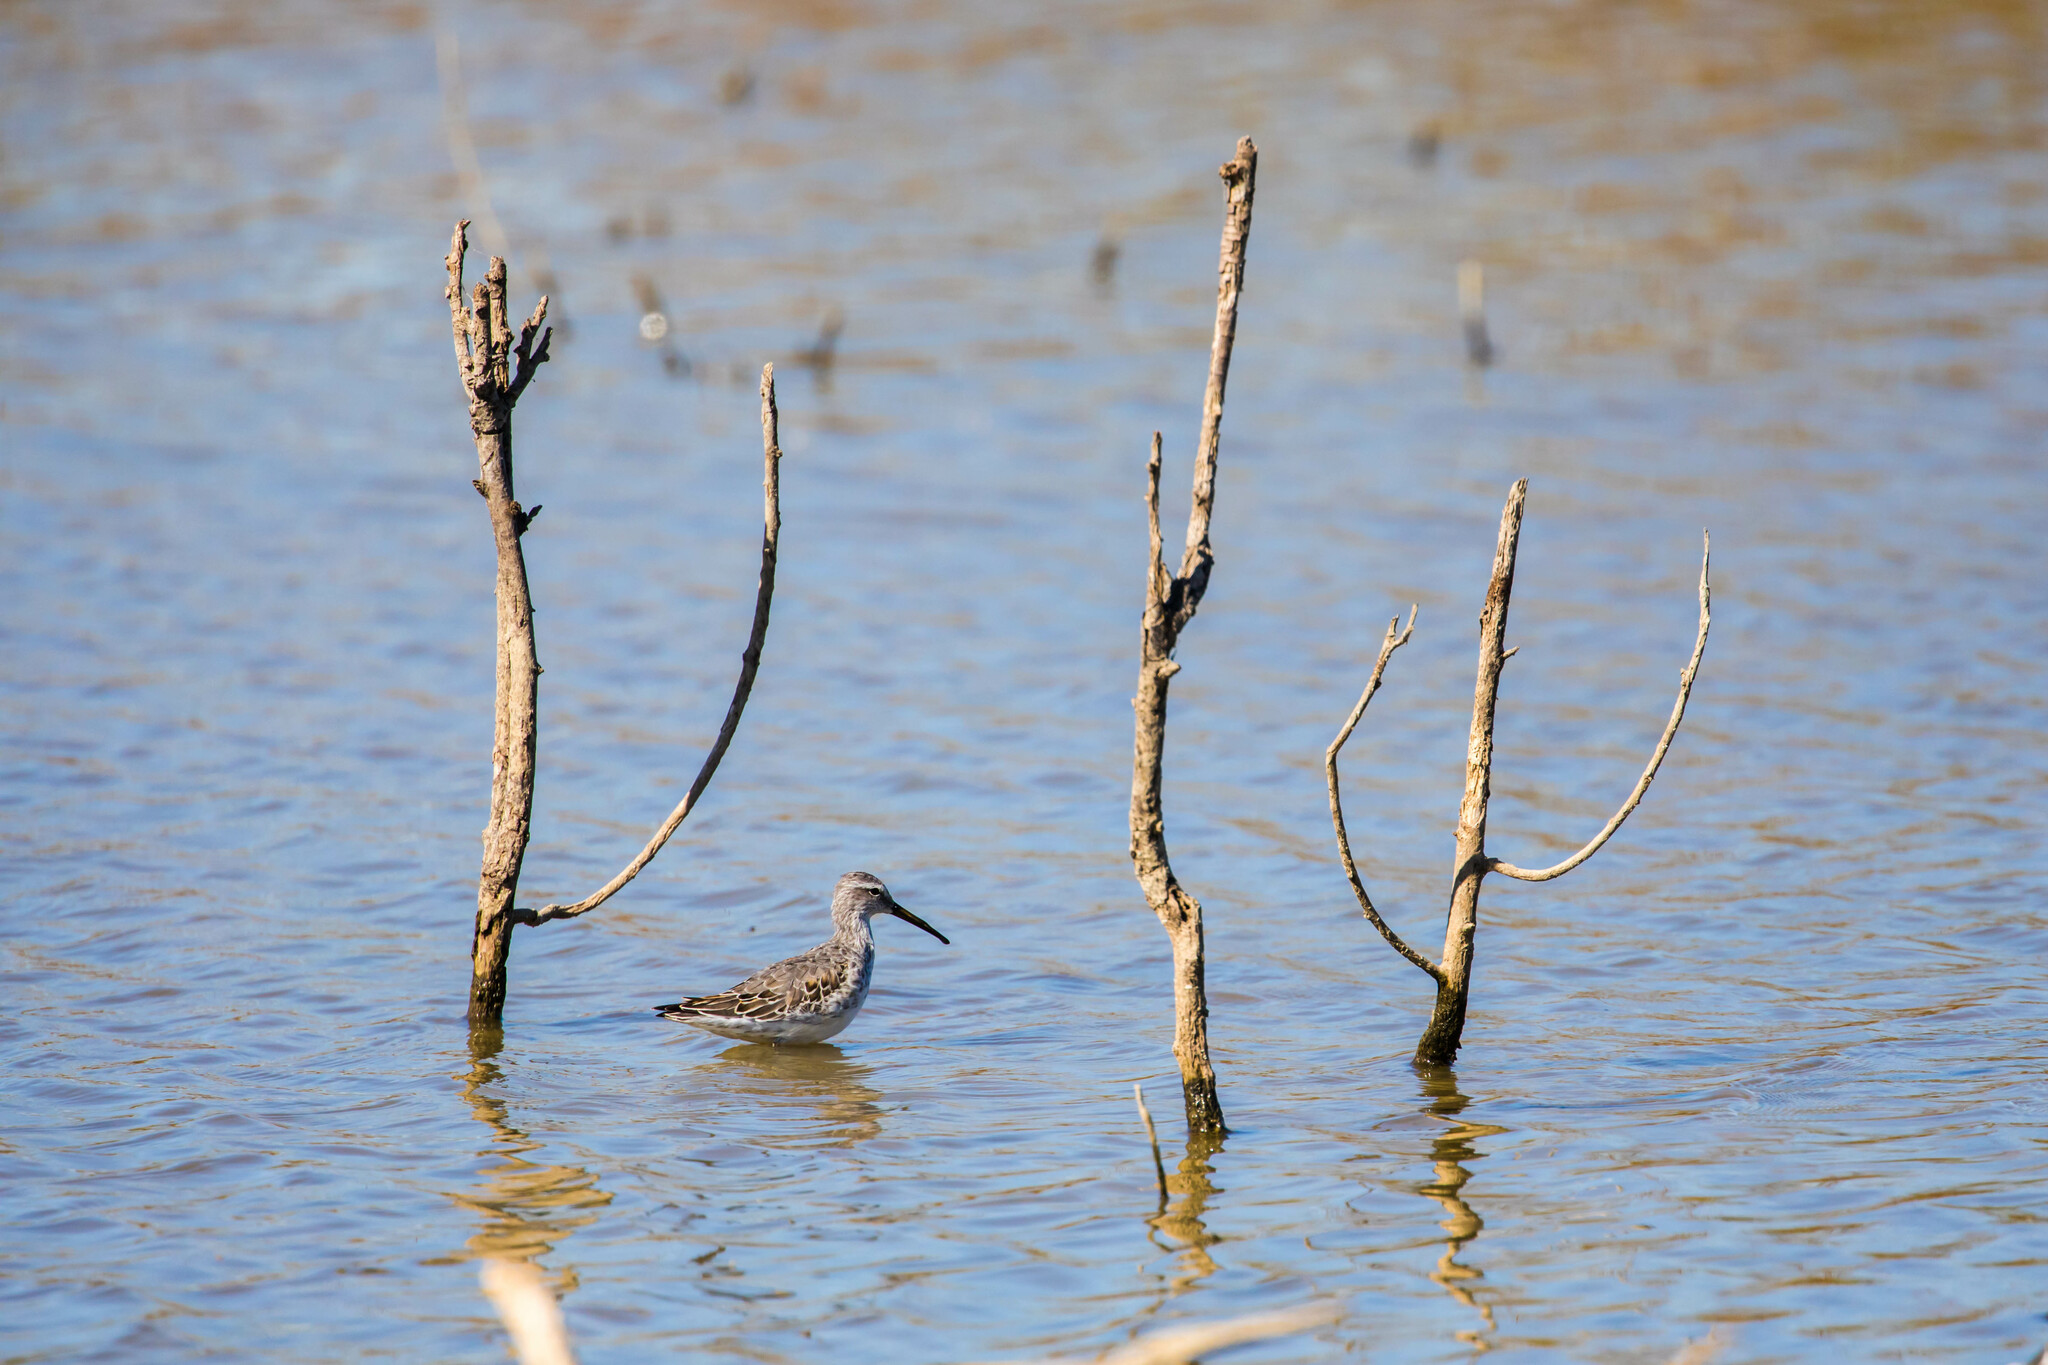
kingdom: Animalia
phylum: Chordata
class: Aves
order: Charadriiformes
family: Scolopacidae
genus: Calidris
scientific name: Calidris himantopus
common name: Stilt sandpiper
